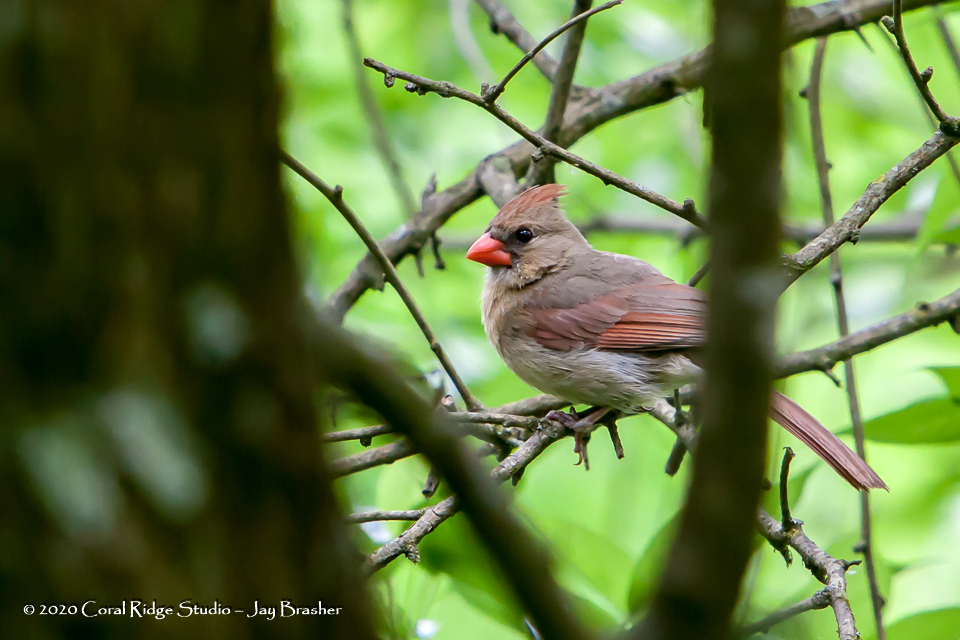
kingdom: Animalia
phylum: Chordata
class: Aves
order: Passeriformes
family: Cardinalidae
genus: Cardinalis
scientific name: Cardinalis cardinalis
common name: Northern cardinal
